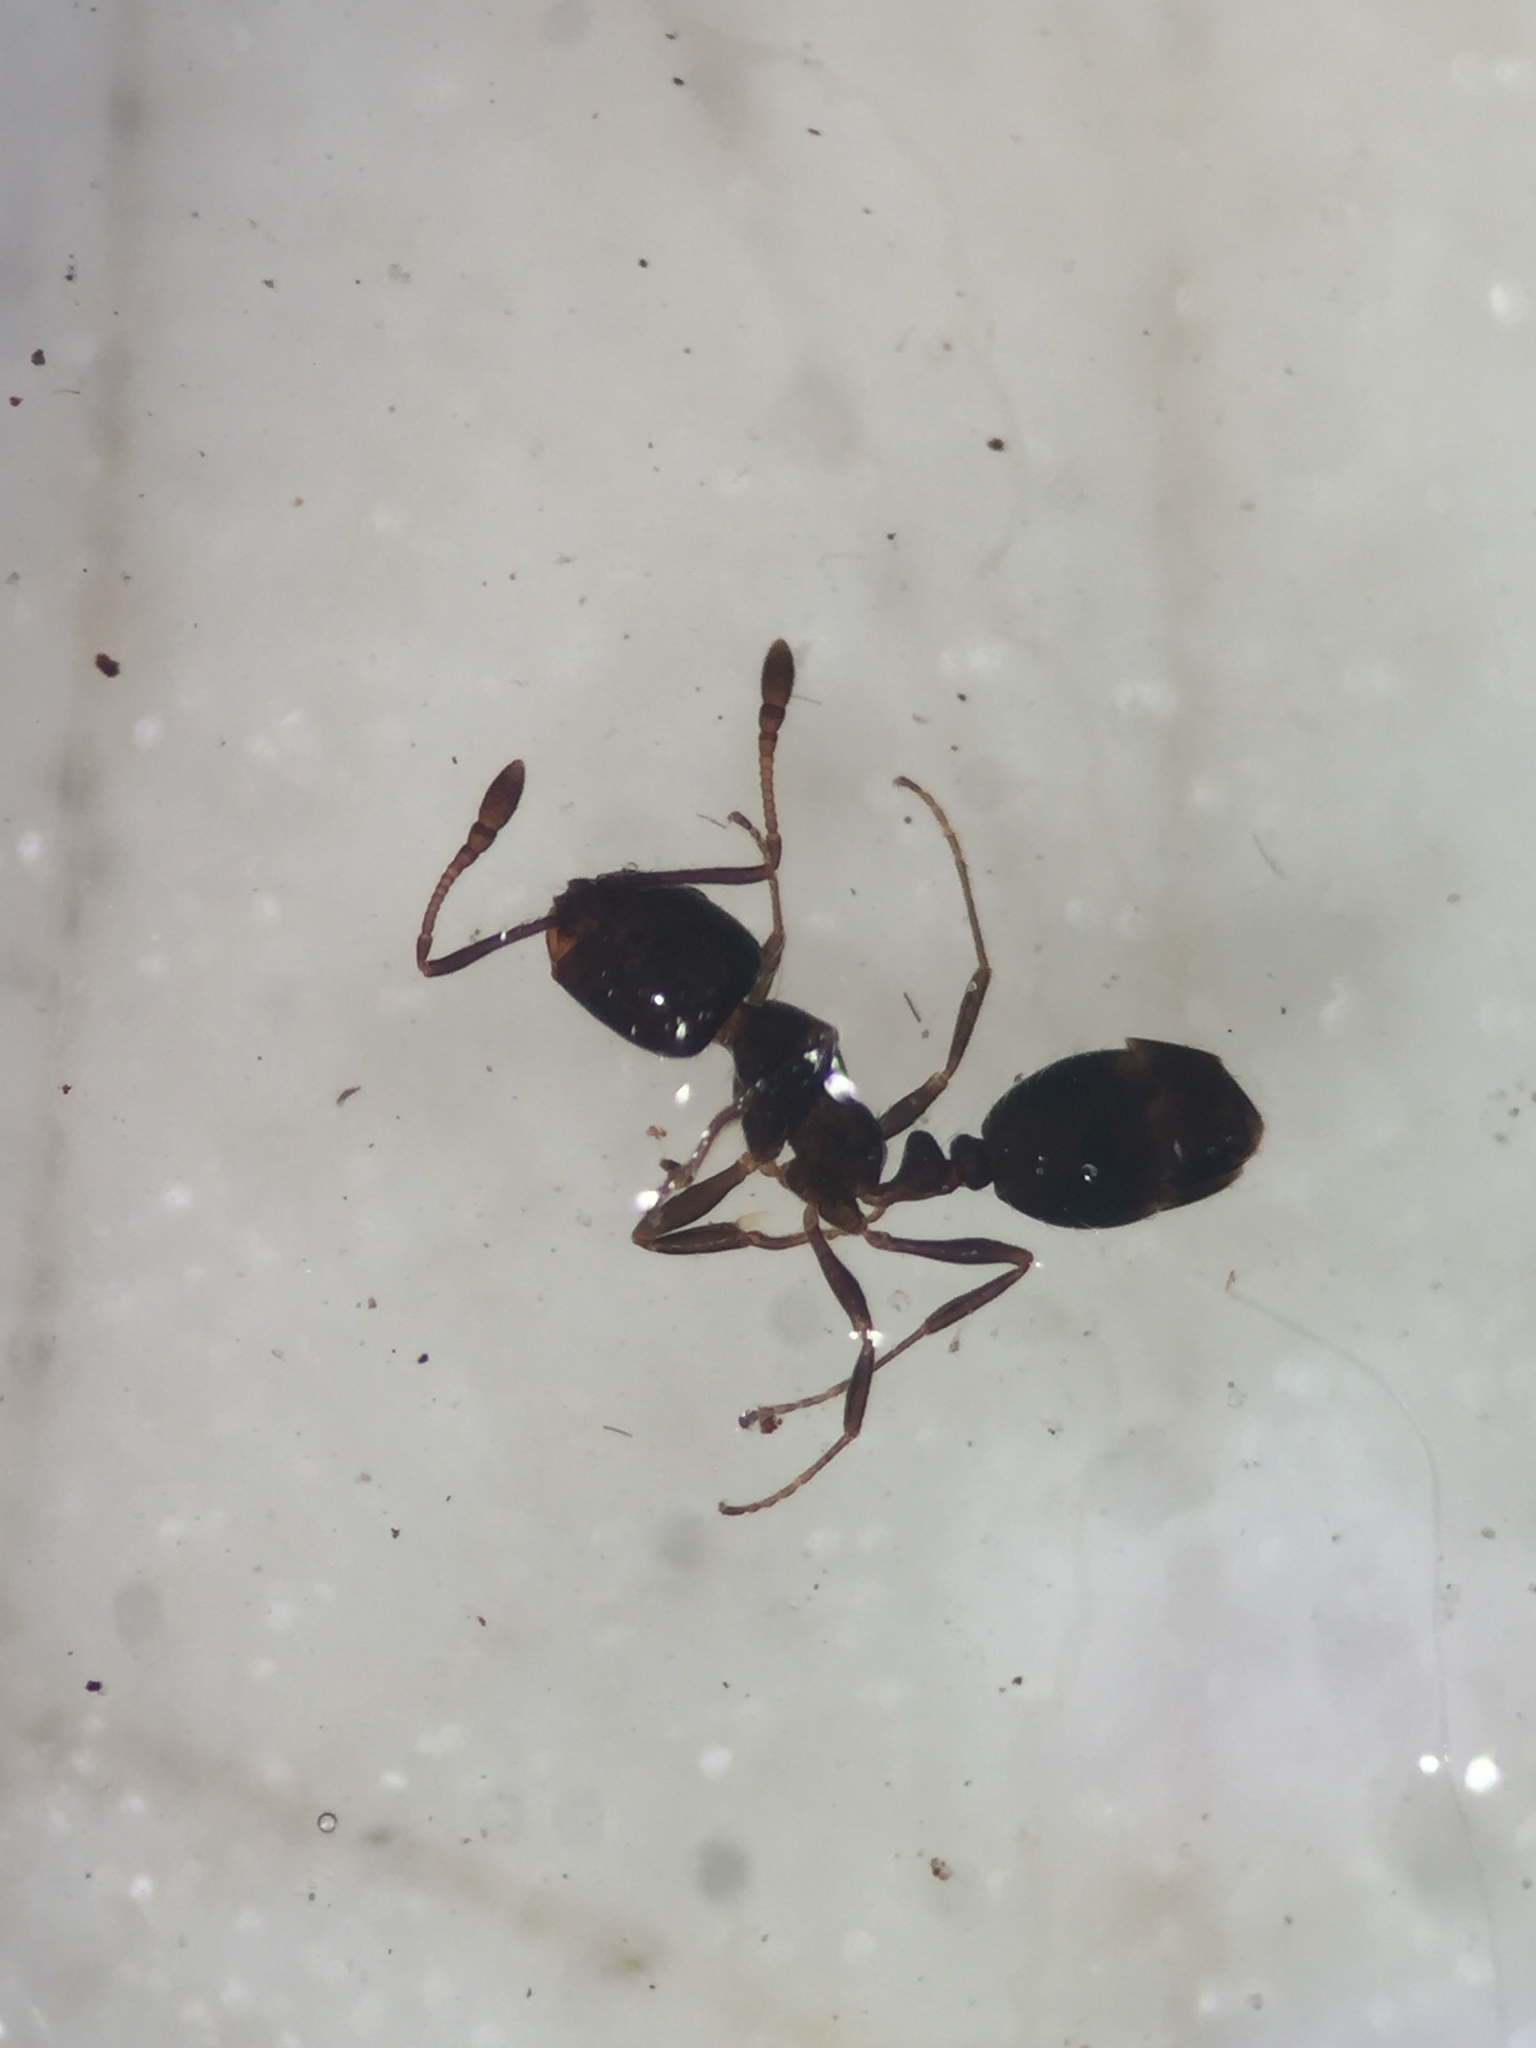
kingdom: Animalia
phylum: Arthropoda
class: Insecta
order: Hymenoptera
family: Formicidae
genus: Monomorium
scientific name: Monomorium minimum
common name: Little black ant
